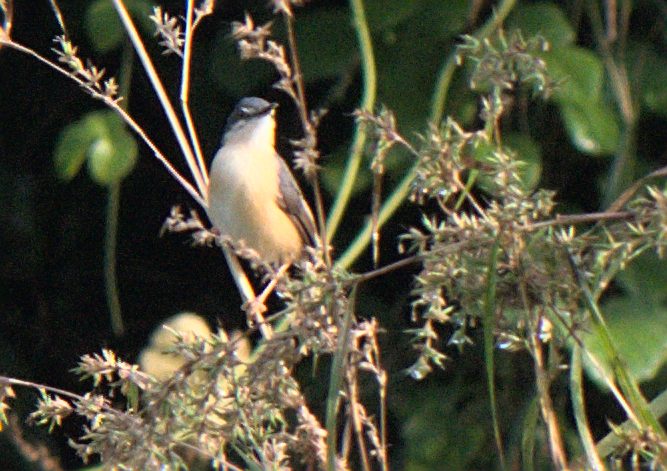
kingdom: Animalia
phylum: Chordata
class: Aves
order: Passeriformes
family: Cisticolidae
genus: Prinia
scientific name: Prinia socialis
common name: Ashy prinia
